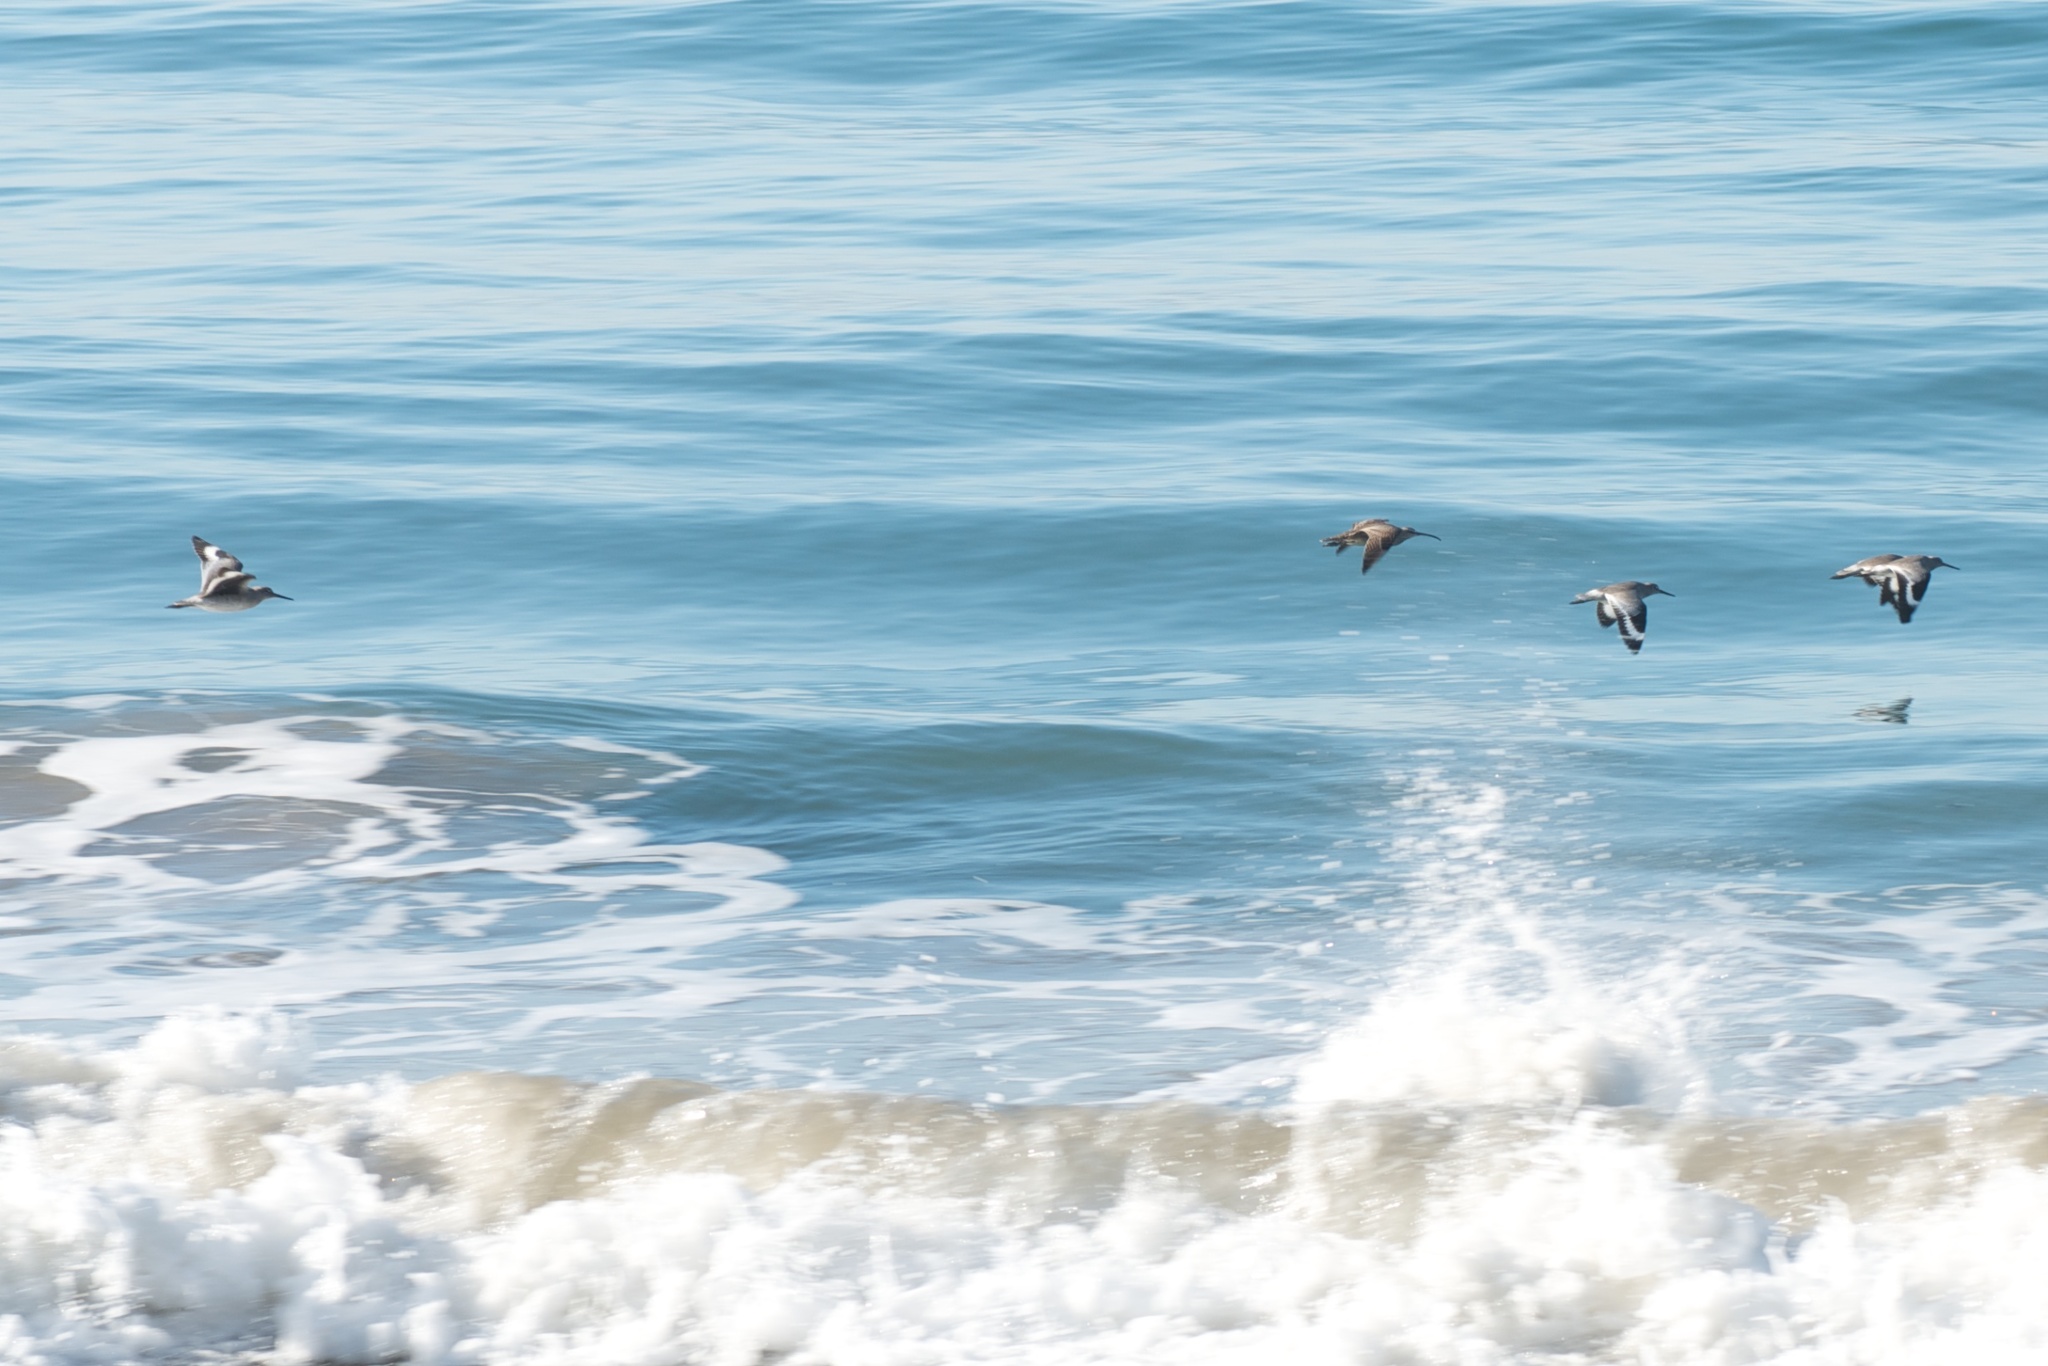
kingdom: Animalia
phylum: Chordata
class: Aves
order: Charadriiformes
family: Scolopacidae
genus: Tringa
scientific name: Tringa semipalmata
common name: Willet
